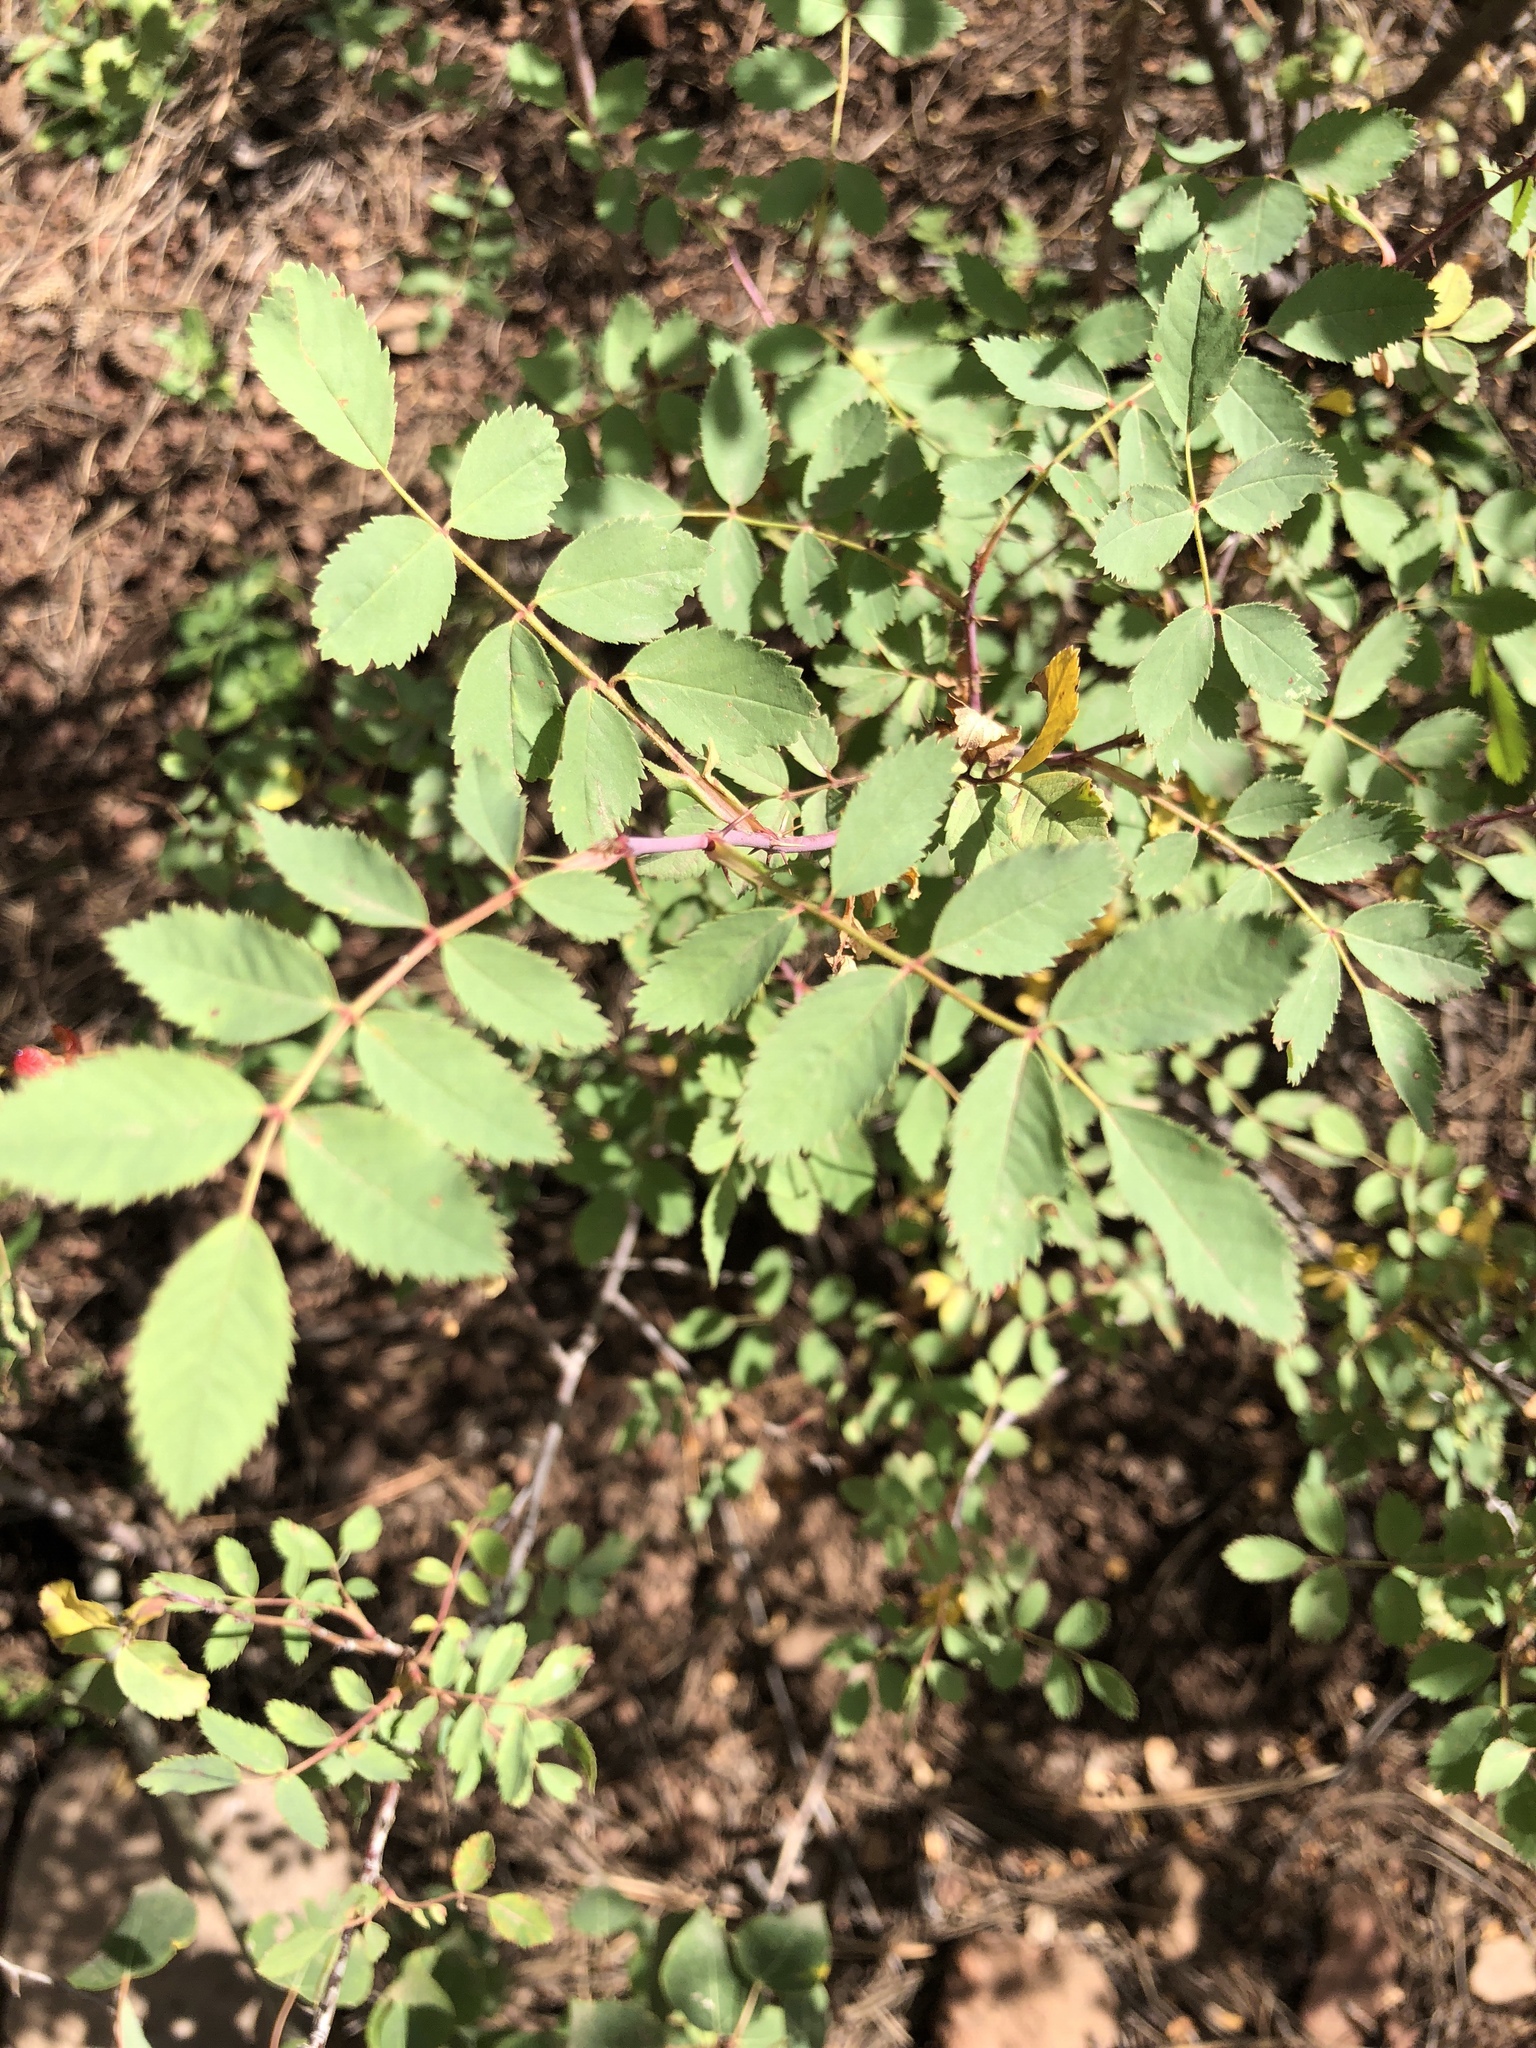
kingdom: Plantae
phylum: Tracheophyta
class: Magnoliopsida
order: Rosales
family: Rosaceae
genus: Rosa
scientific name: Rosa woodsii
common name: Woods's rose
